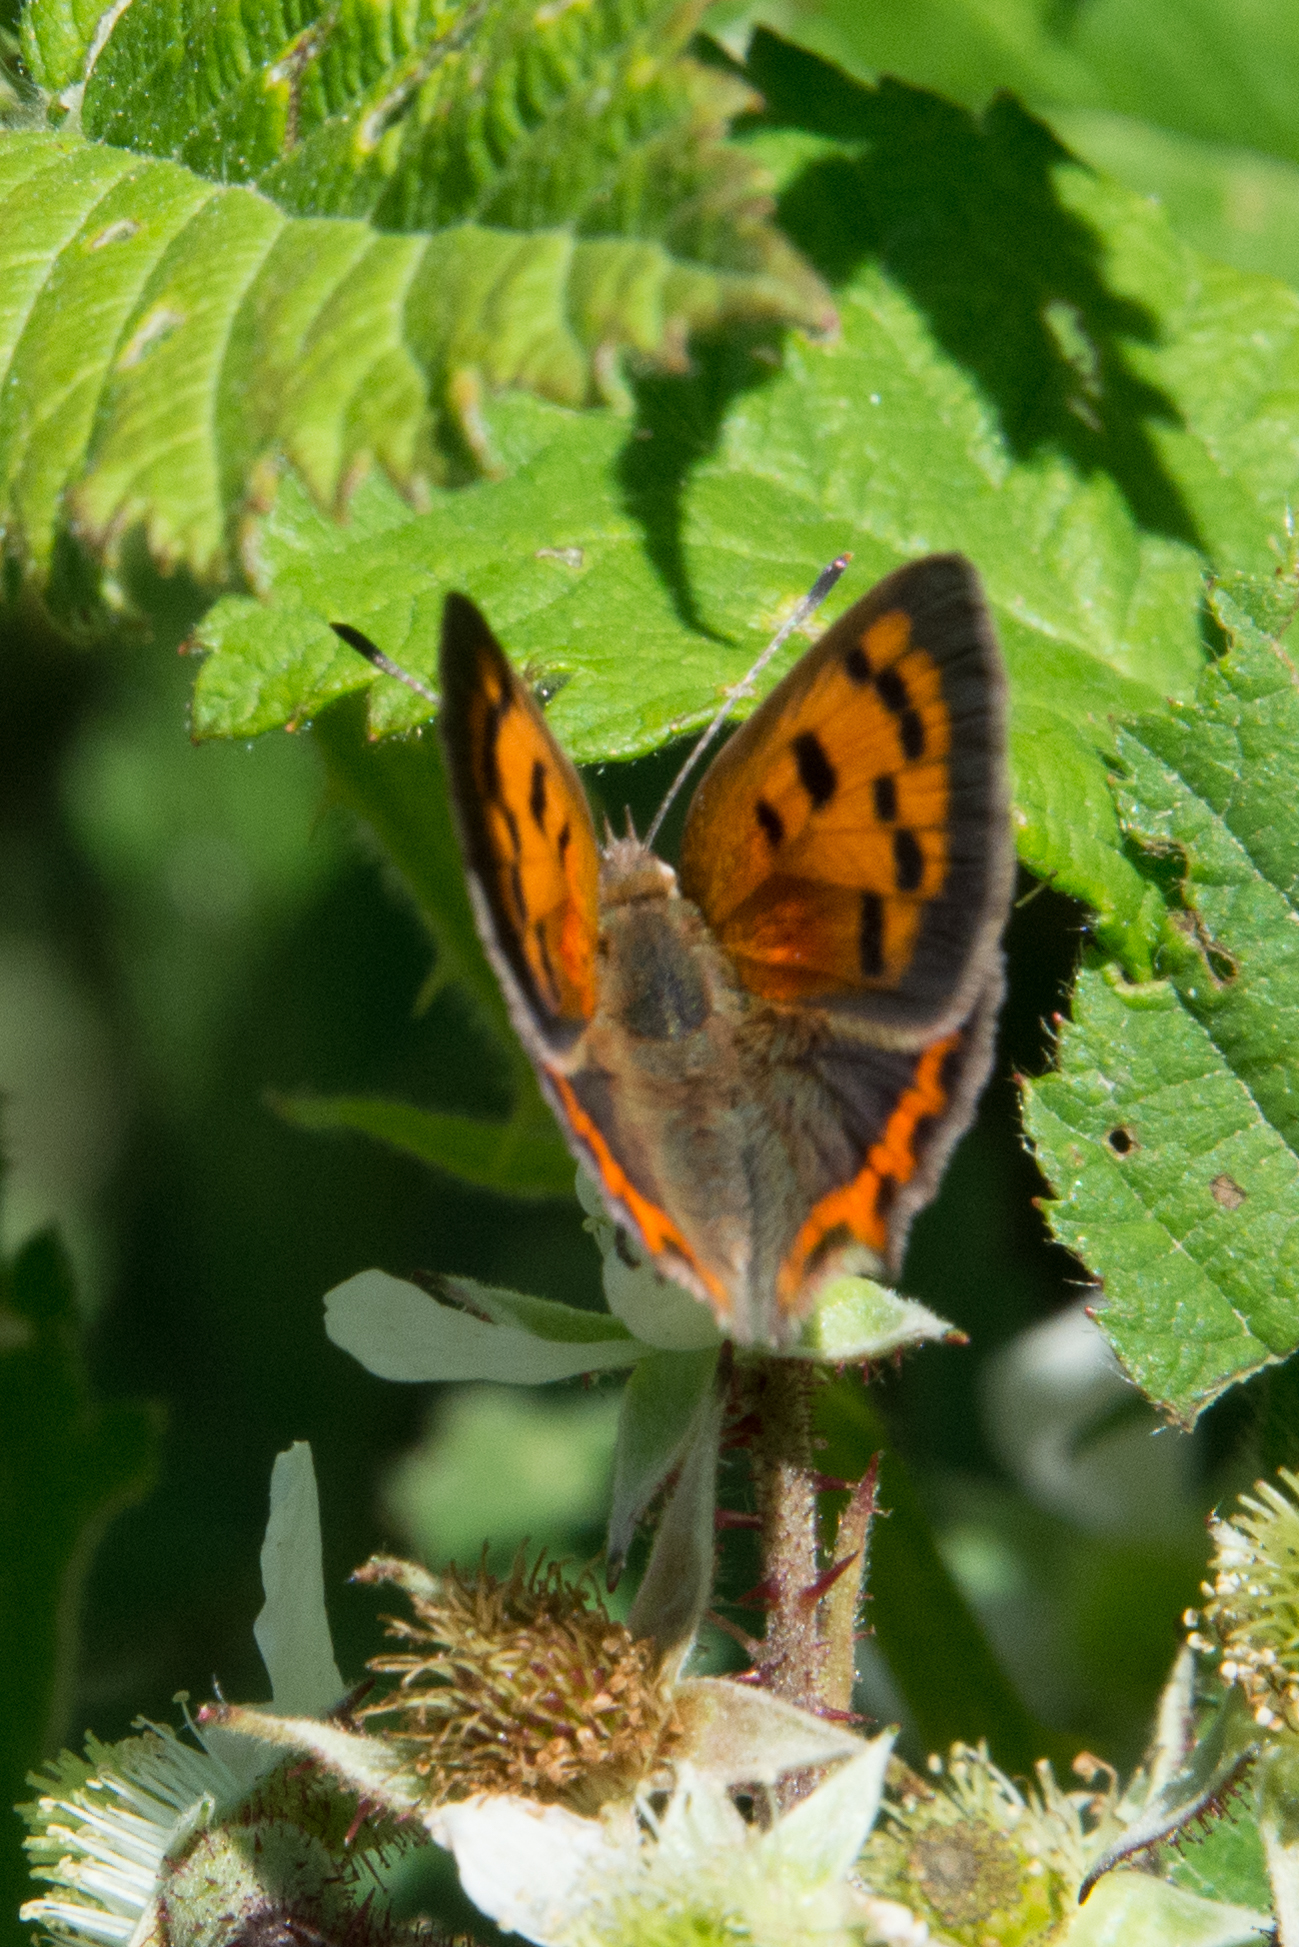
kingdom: Animalia
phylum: Arthropoda
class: Insecta
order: Lepidoptera
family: Lycaenidae
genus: Lycaena
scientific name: Lycaena phlaeas
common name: Small copper
